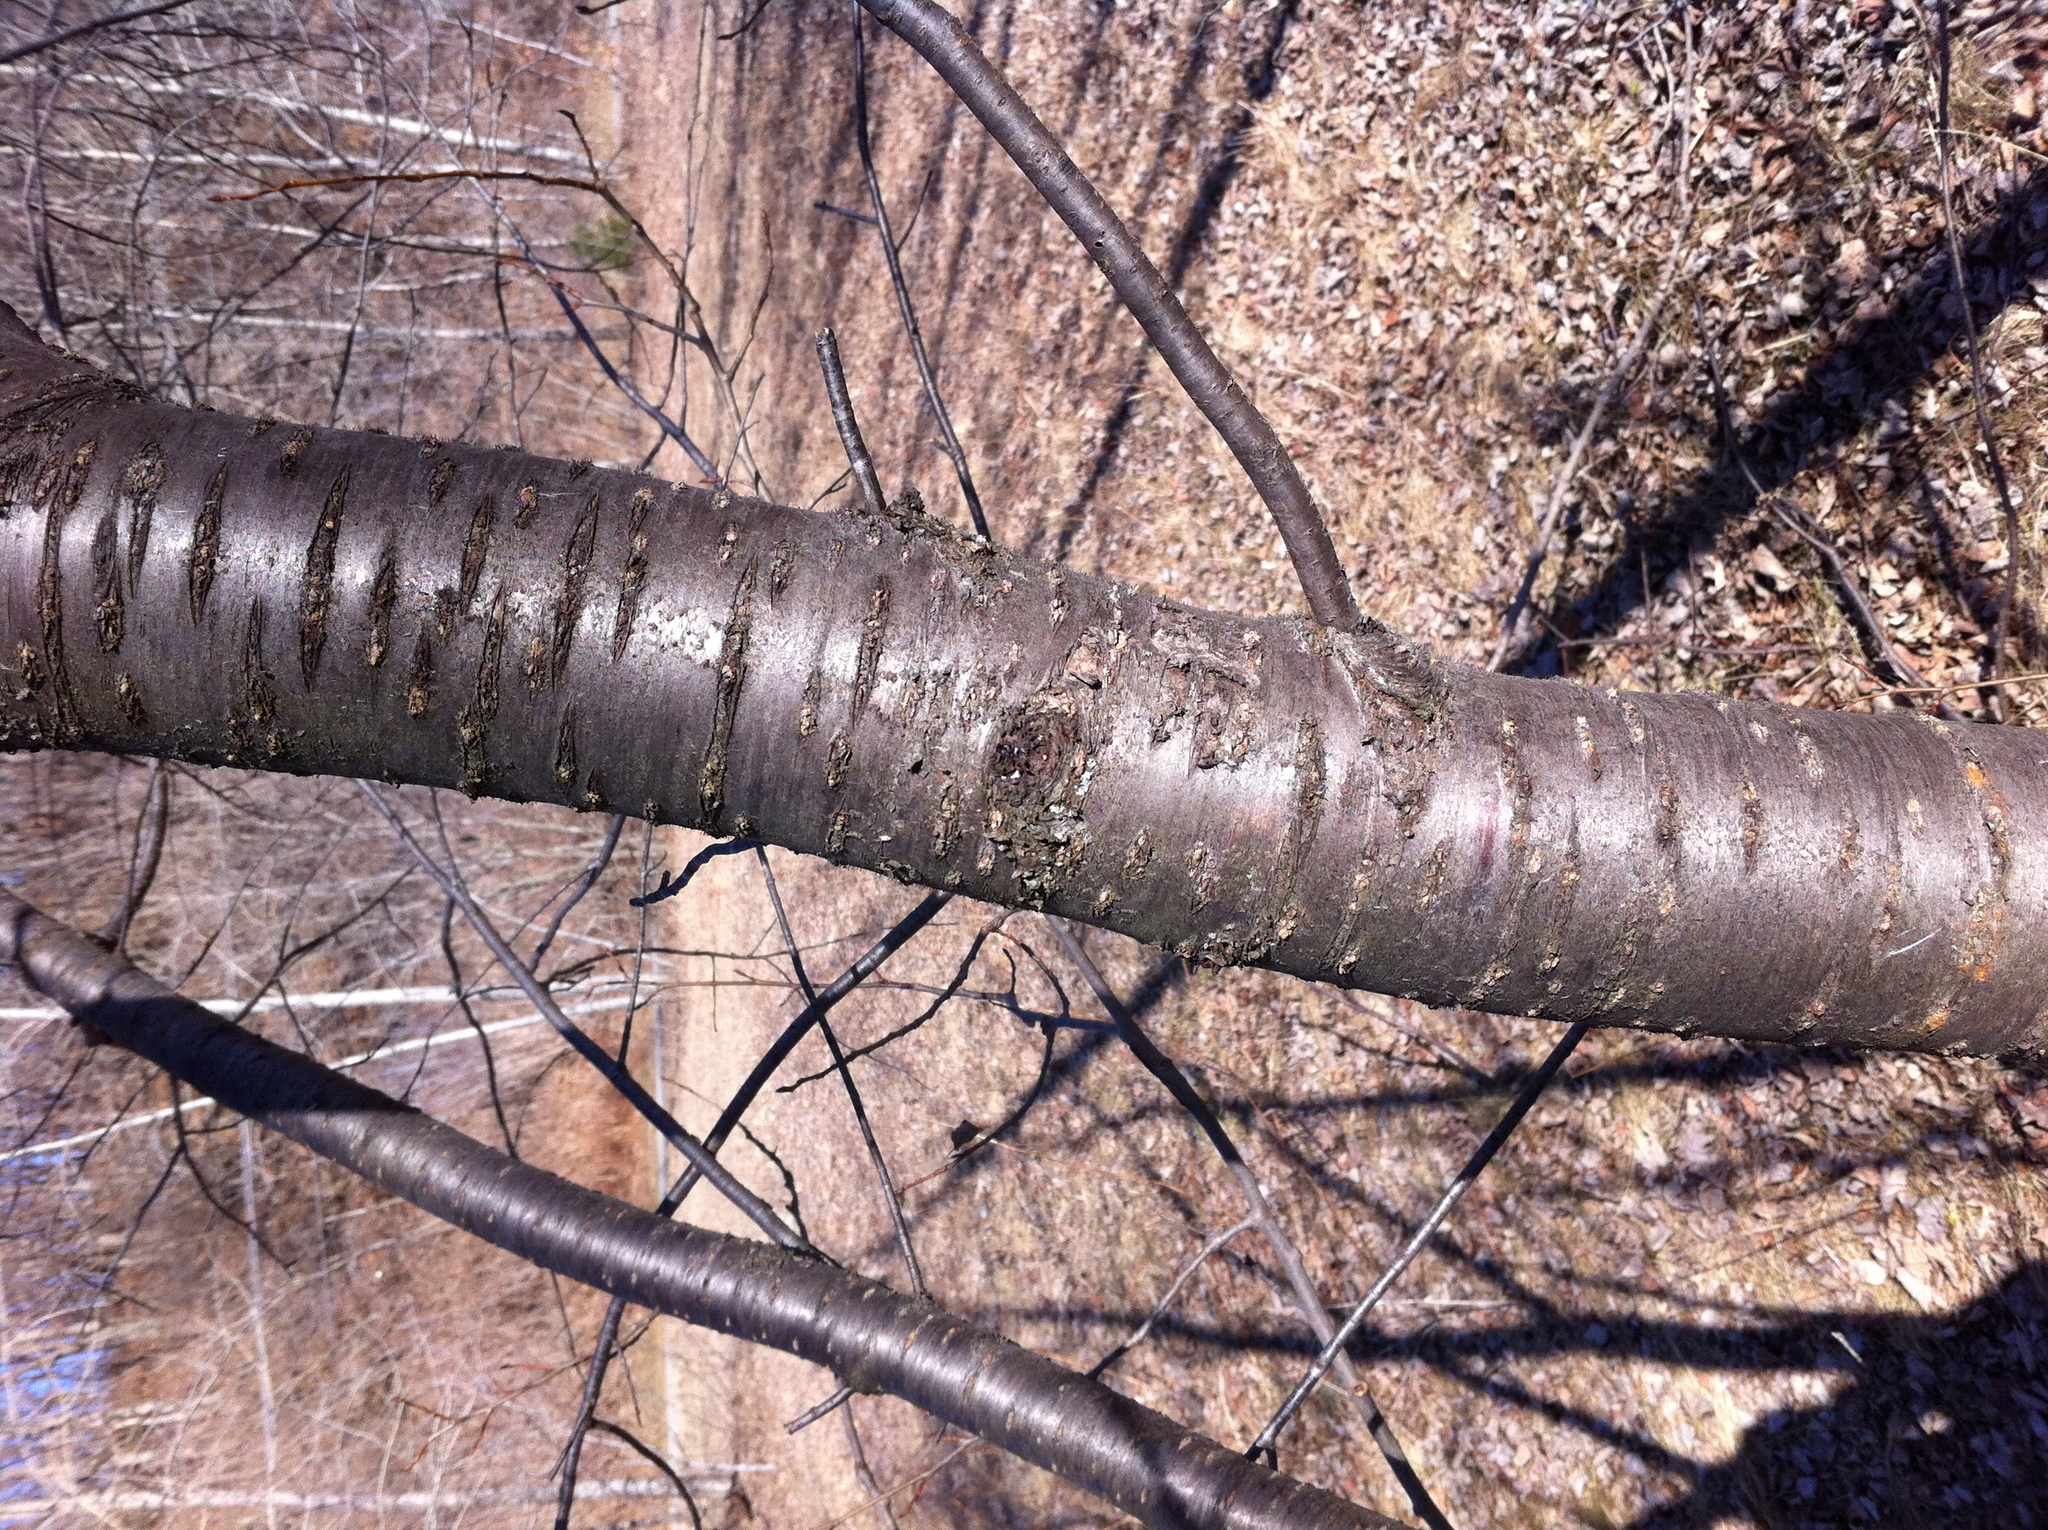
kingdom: Plantae
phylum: Tracheophyta
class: Magnoliopsida
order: Rosales
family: Rosaceae
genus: Prunus
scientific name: Prunus pensylvanica
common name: Pin cherry
